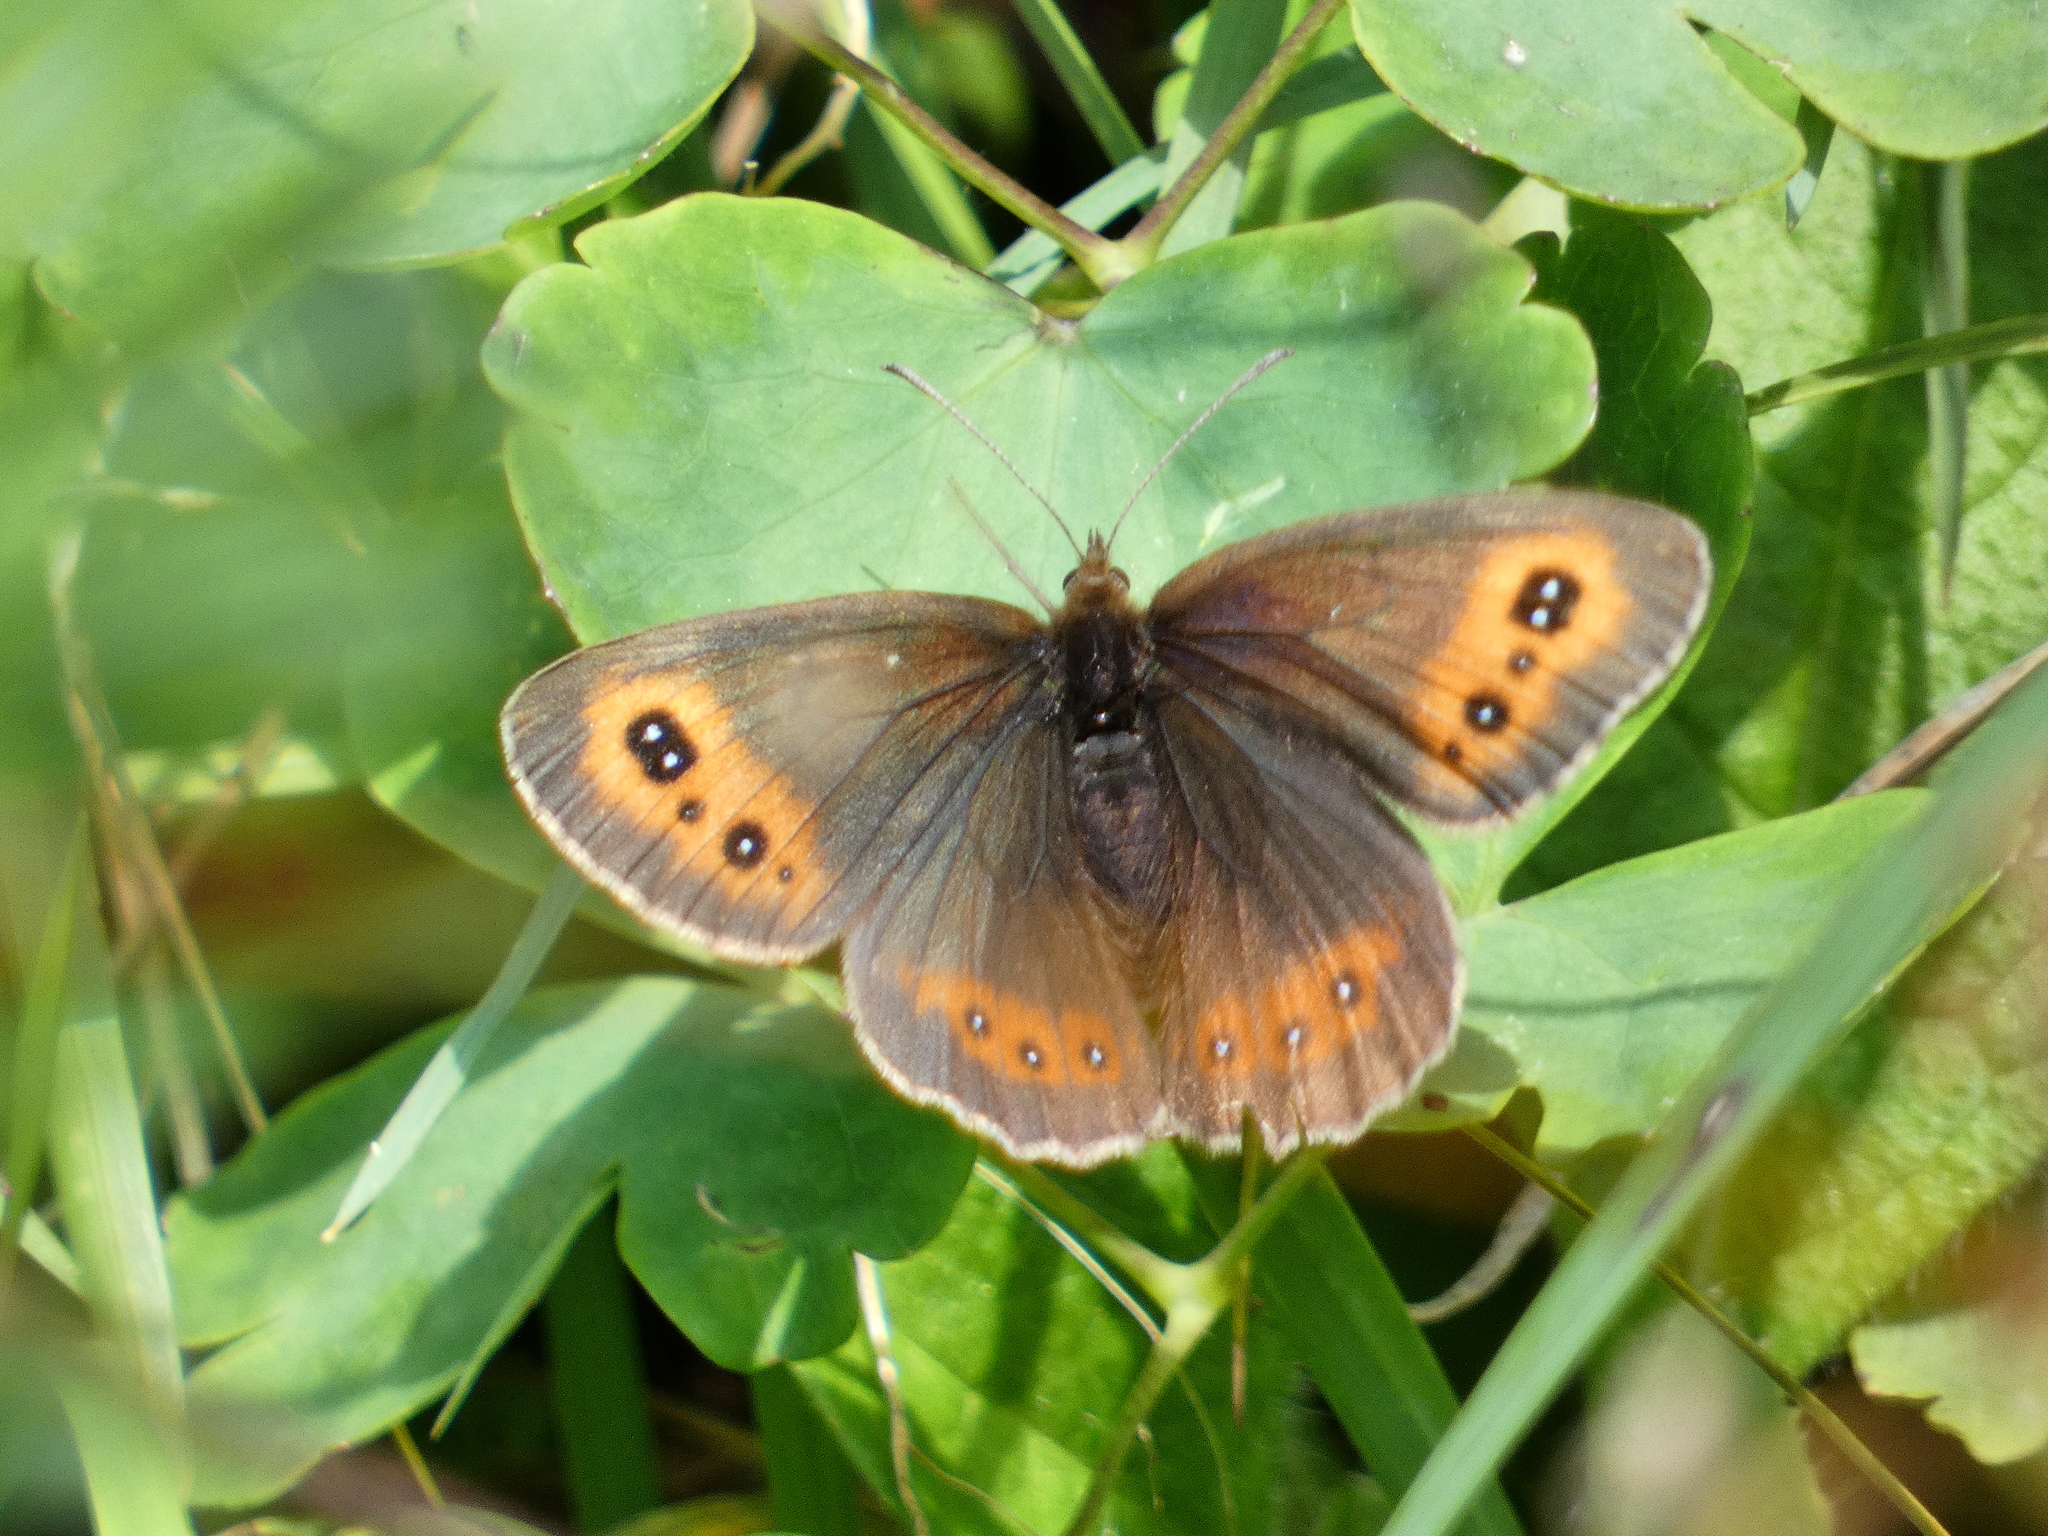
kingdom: Animalia
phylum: Arthropoda
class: Insecta
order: Lepidoptera
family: Nymphalidae
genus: Erebia
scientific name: Erebia aethiops
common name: Scotch argus
